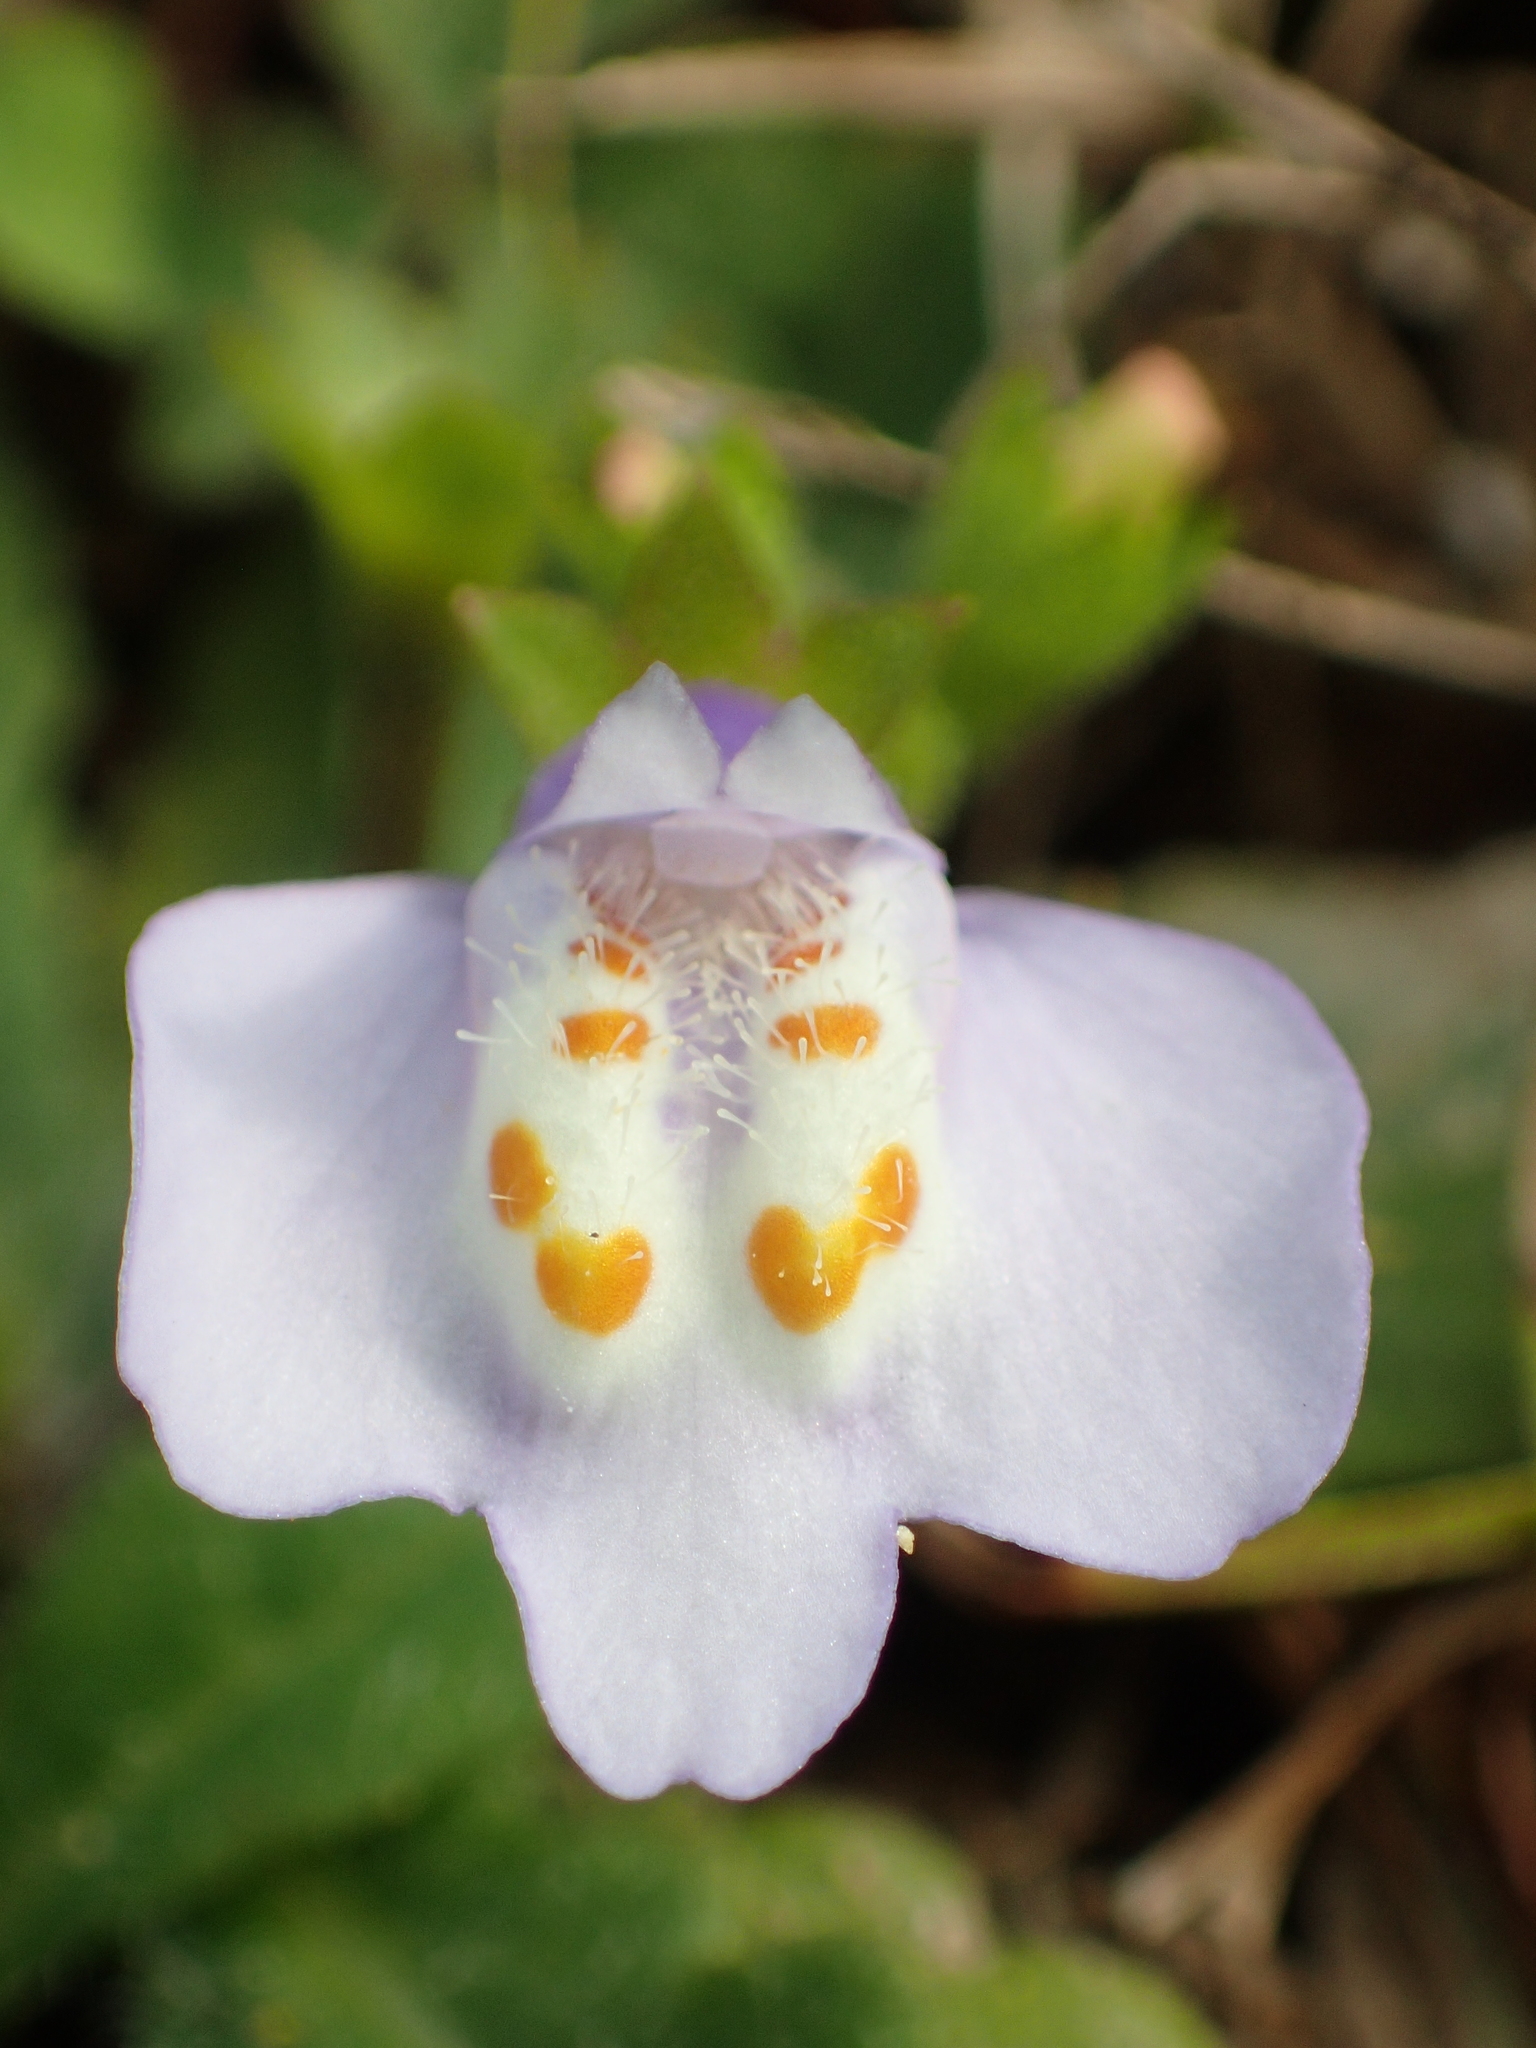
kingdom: Plantae
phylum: Tracheophyta
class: Magnoliopsida
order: Lamiales
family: Mazaceae
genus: Mazus
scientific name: Mazus fauriei
